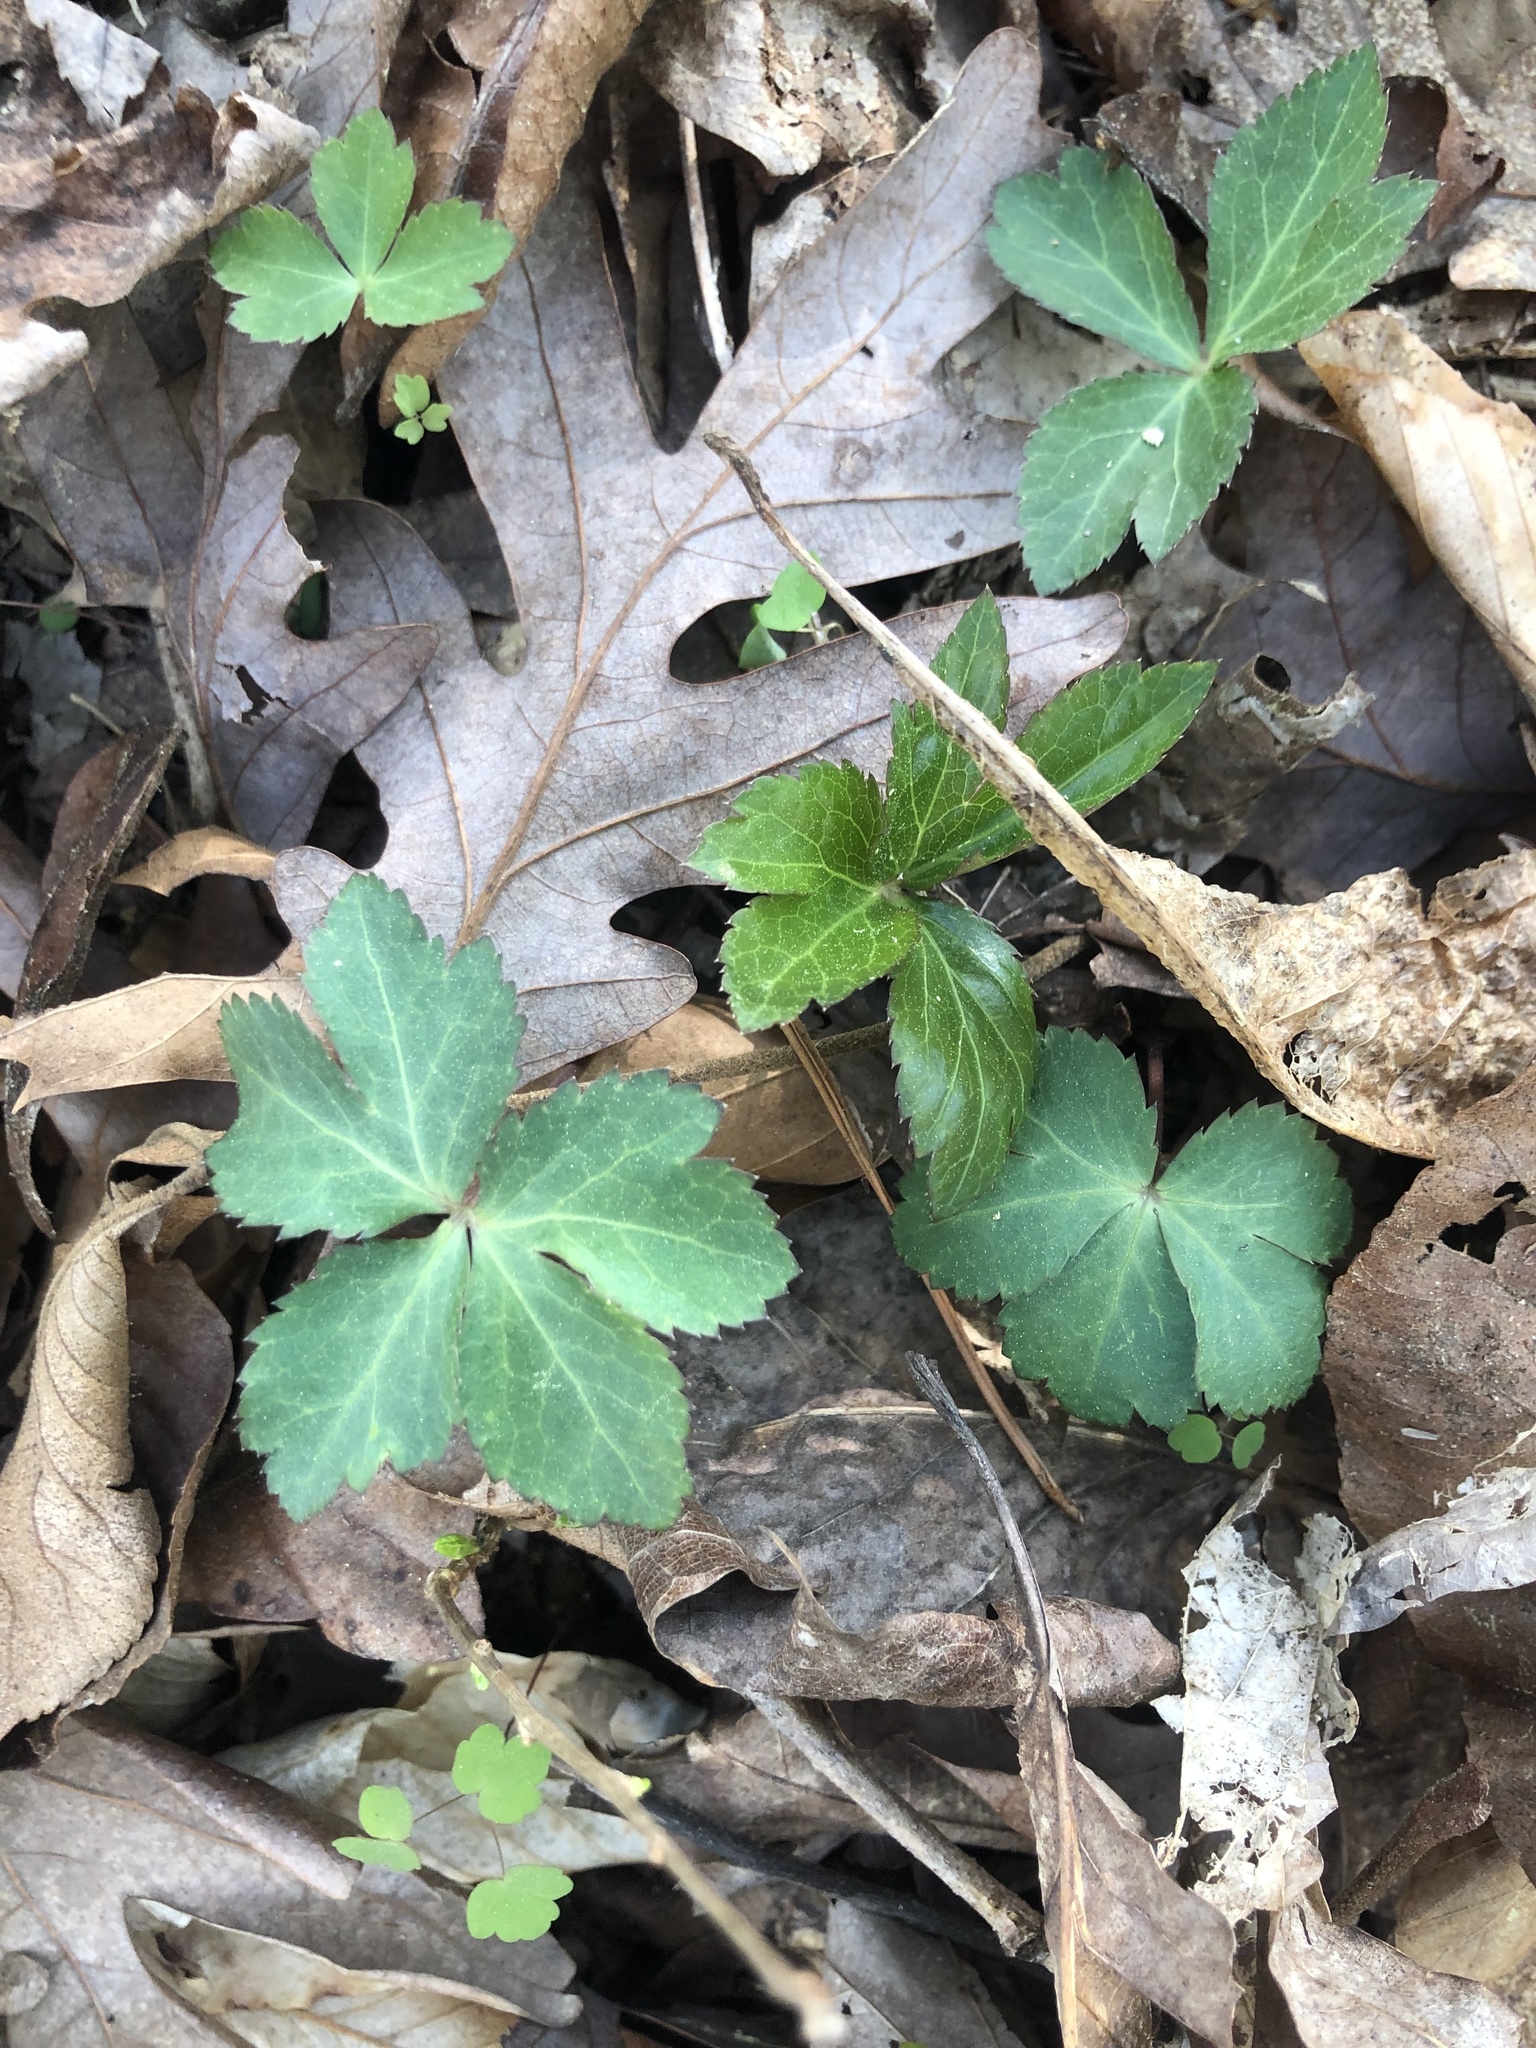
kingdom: Plantae
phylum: Tracheophyta
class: Magnoliopsida
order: Apiales
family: Apiaceae
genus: Sanicula
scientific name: Sanicula smallii
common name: Small's black snakeroot
